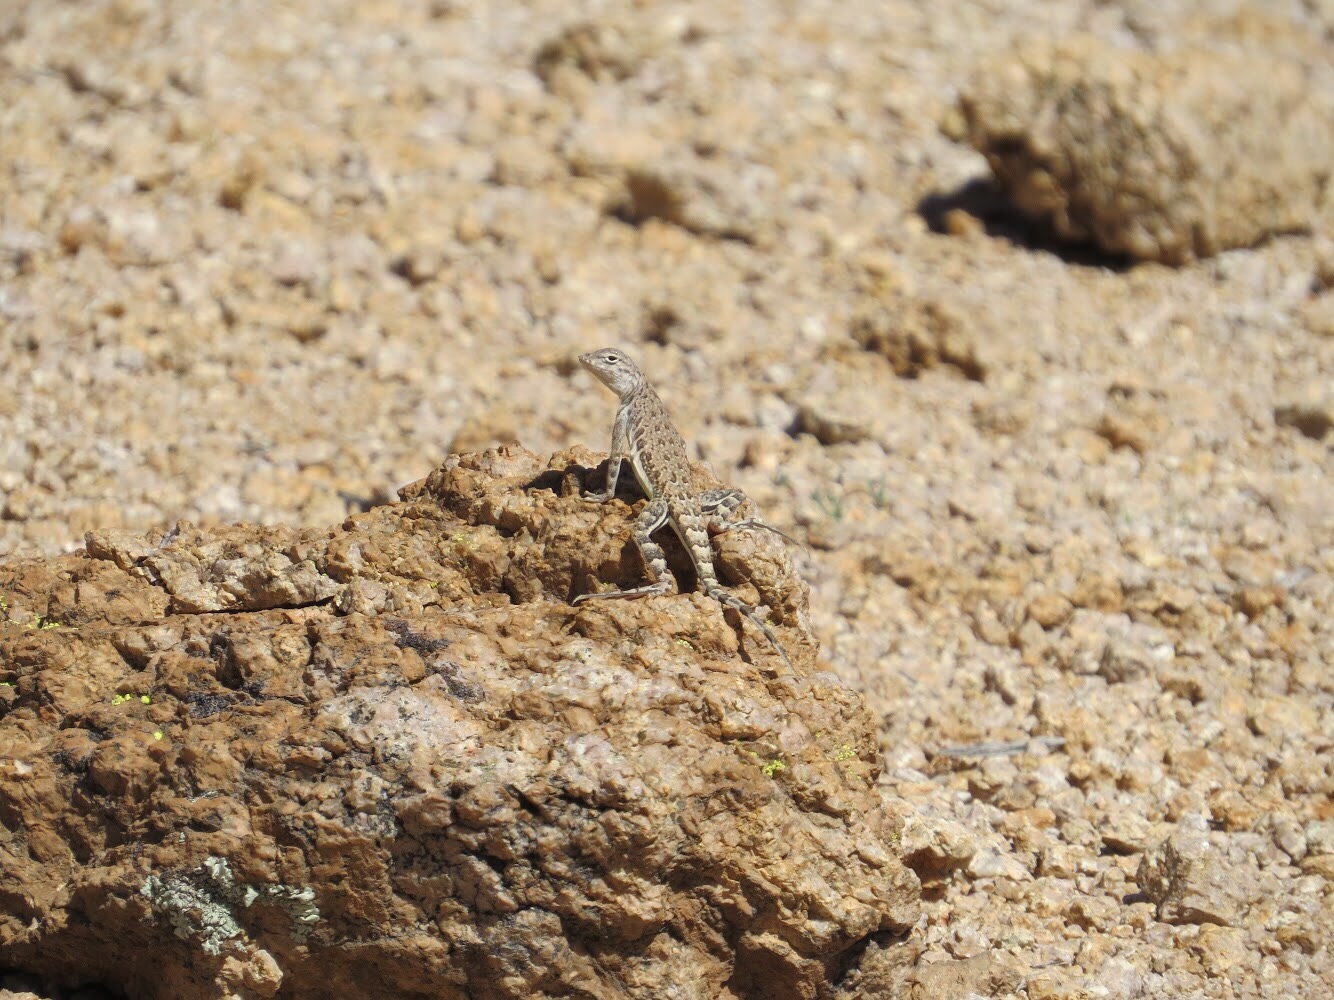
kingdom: Animalia
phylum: Chordata
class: Squamata
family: Phrynosomatidae
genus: Callisaurus
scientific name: Callisaurus draconoides
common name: Zebra-tailed lizard
